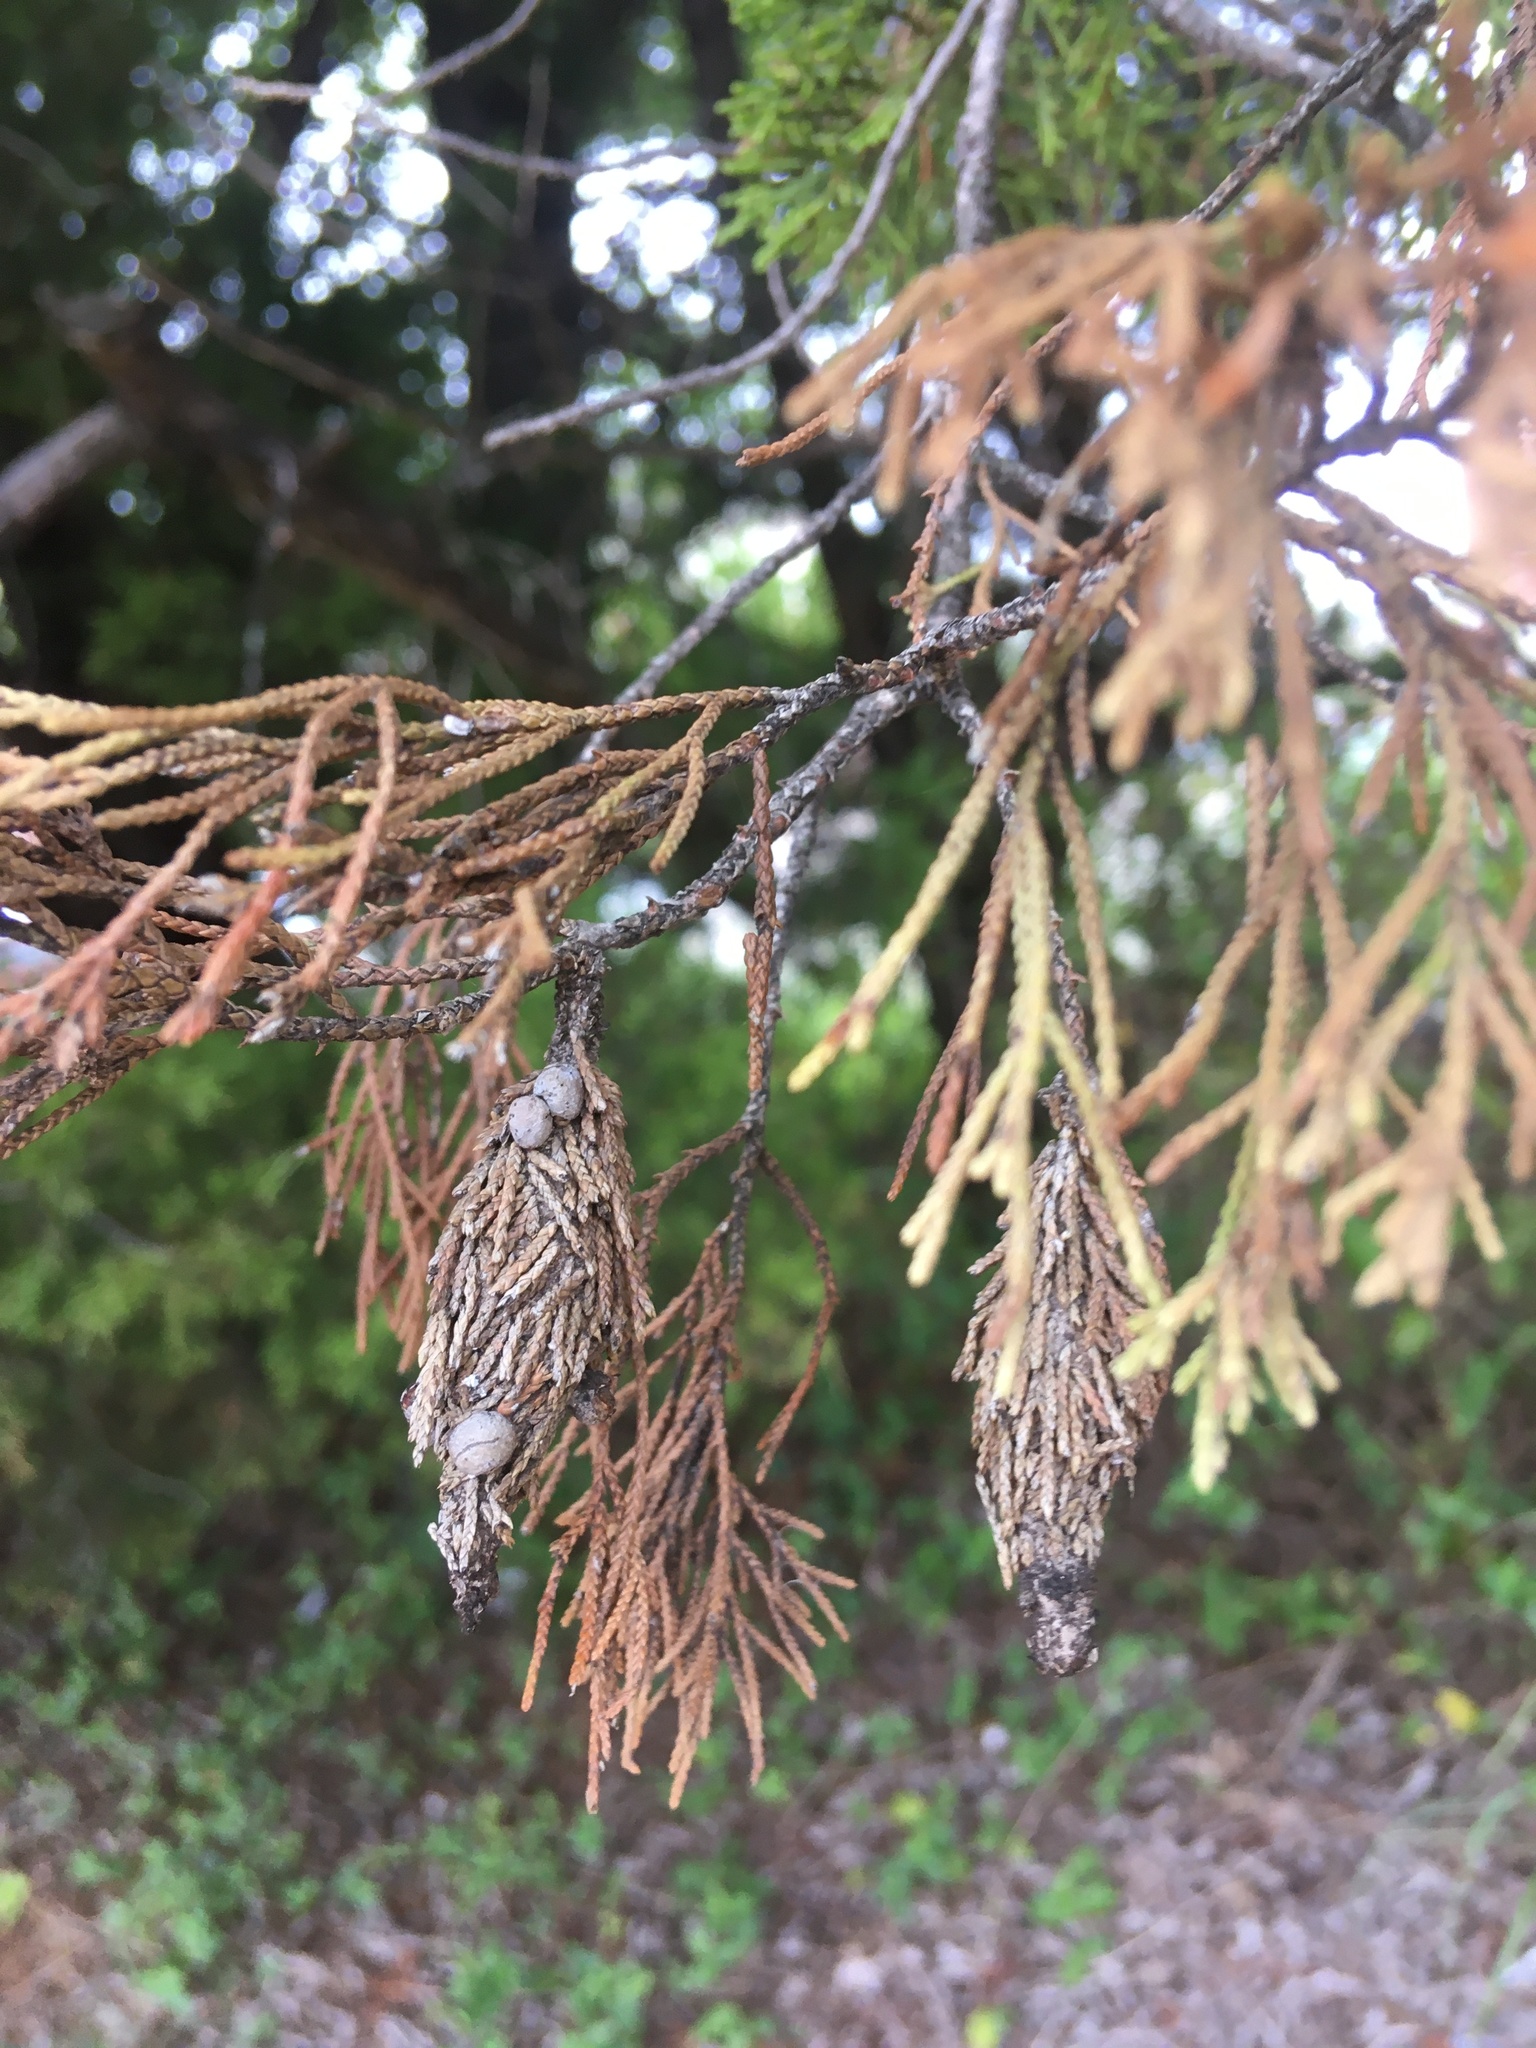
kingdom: Animalia
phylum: Arthropoda
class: Insecta
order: Lepidoptera
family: Psychidae
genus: Thyridopteryx
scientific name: Thyridopteryx ephemeraeformis
